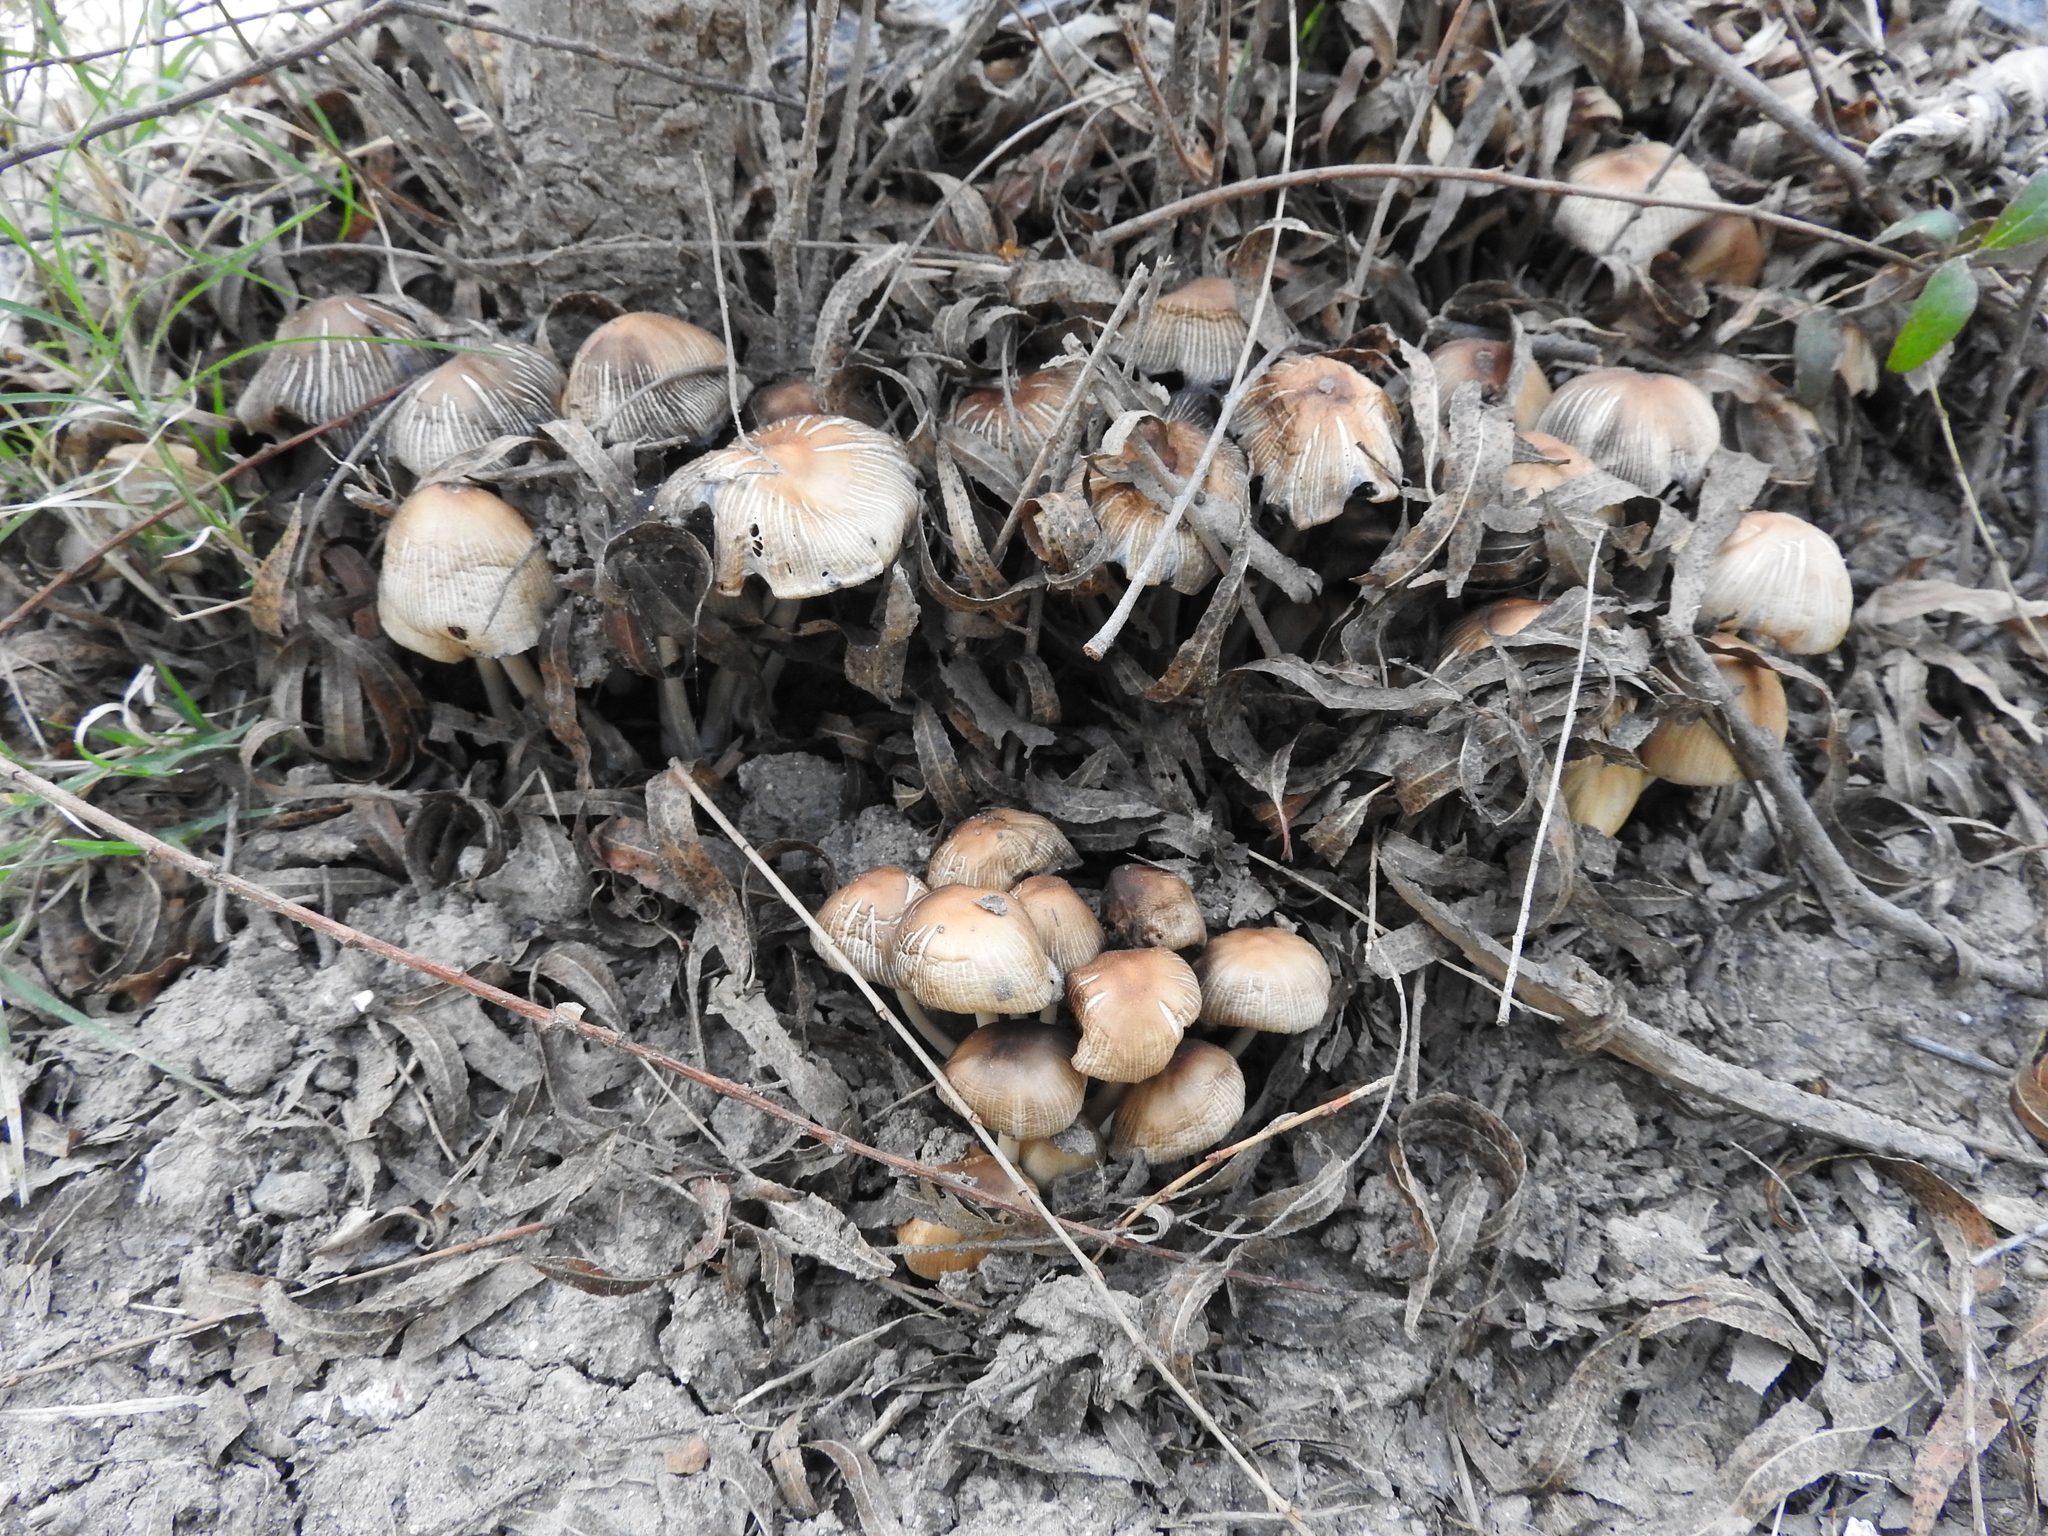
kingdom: Fungi
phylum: Basidiomycota
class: Agaricomycetes
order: Agaricales
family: Psathyrellaceae
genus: Coprinellus
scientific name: Coprinellus micaceus
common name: Glistening ink-cap
